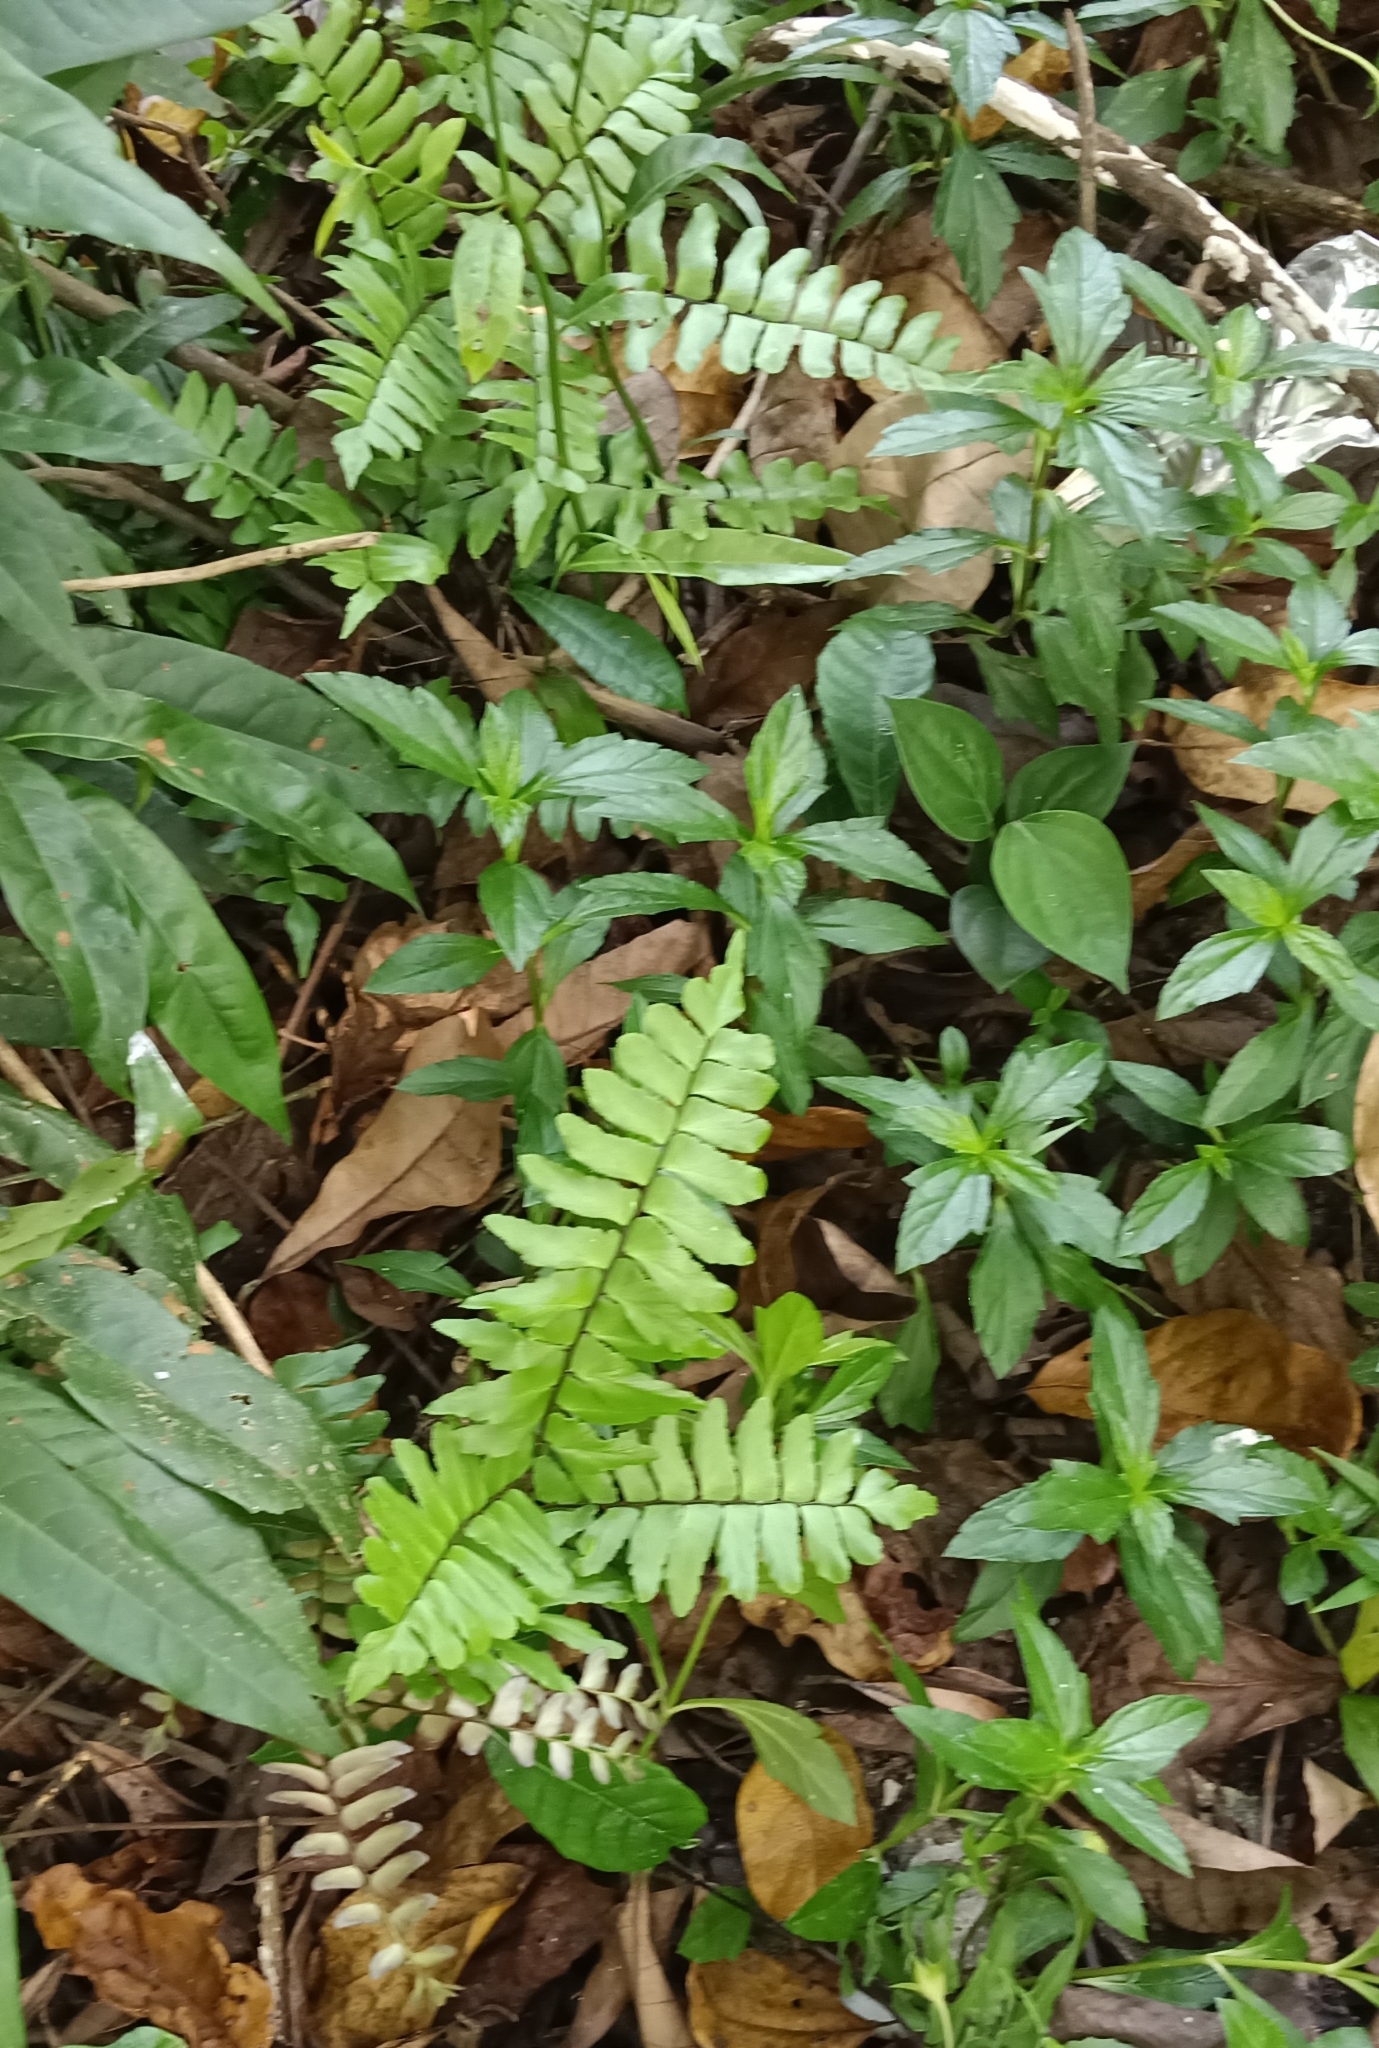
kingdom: Plantae
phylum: Tracheophyta
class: Polypodiopsida
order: Polypodiales
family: Pteridaceae
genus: Adiantum
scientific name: Adiantum latifolium
